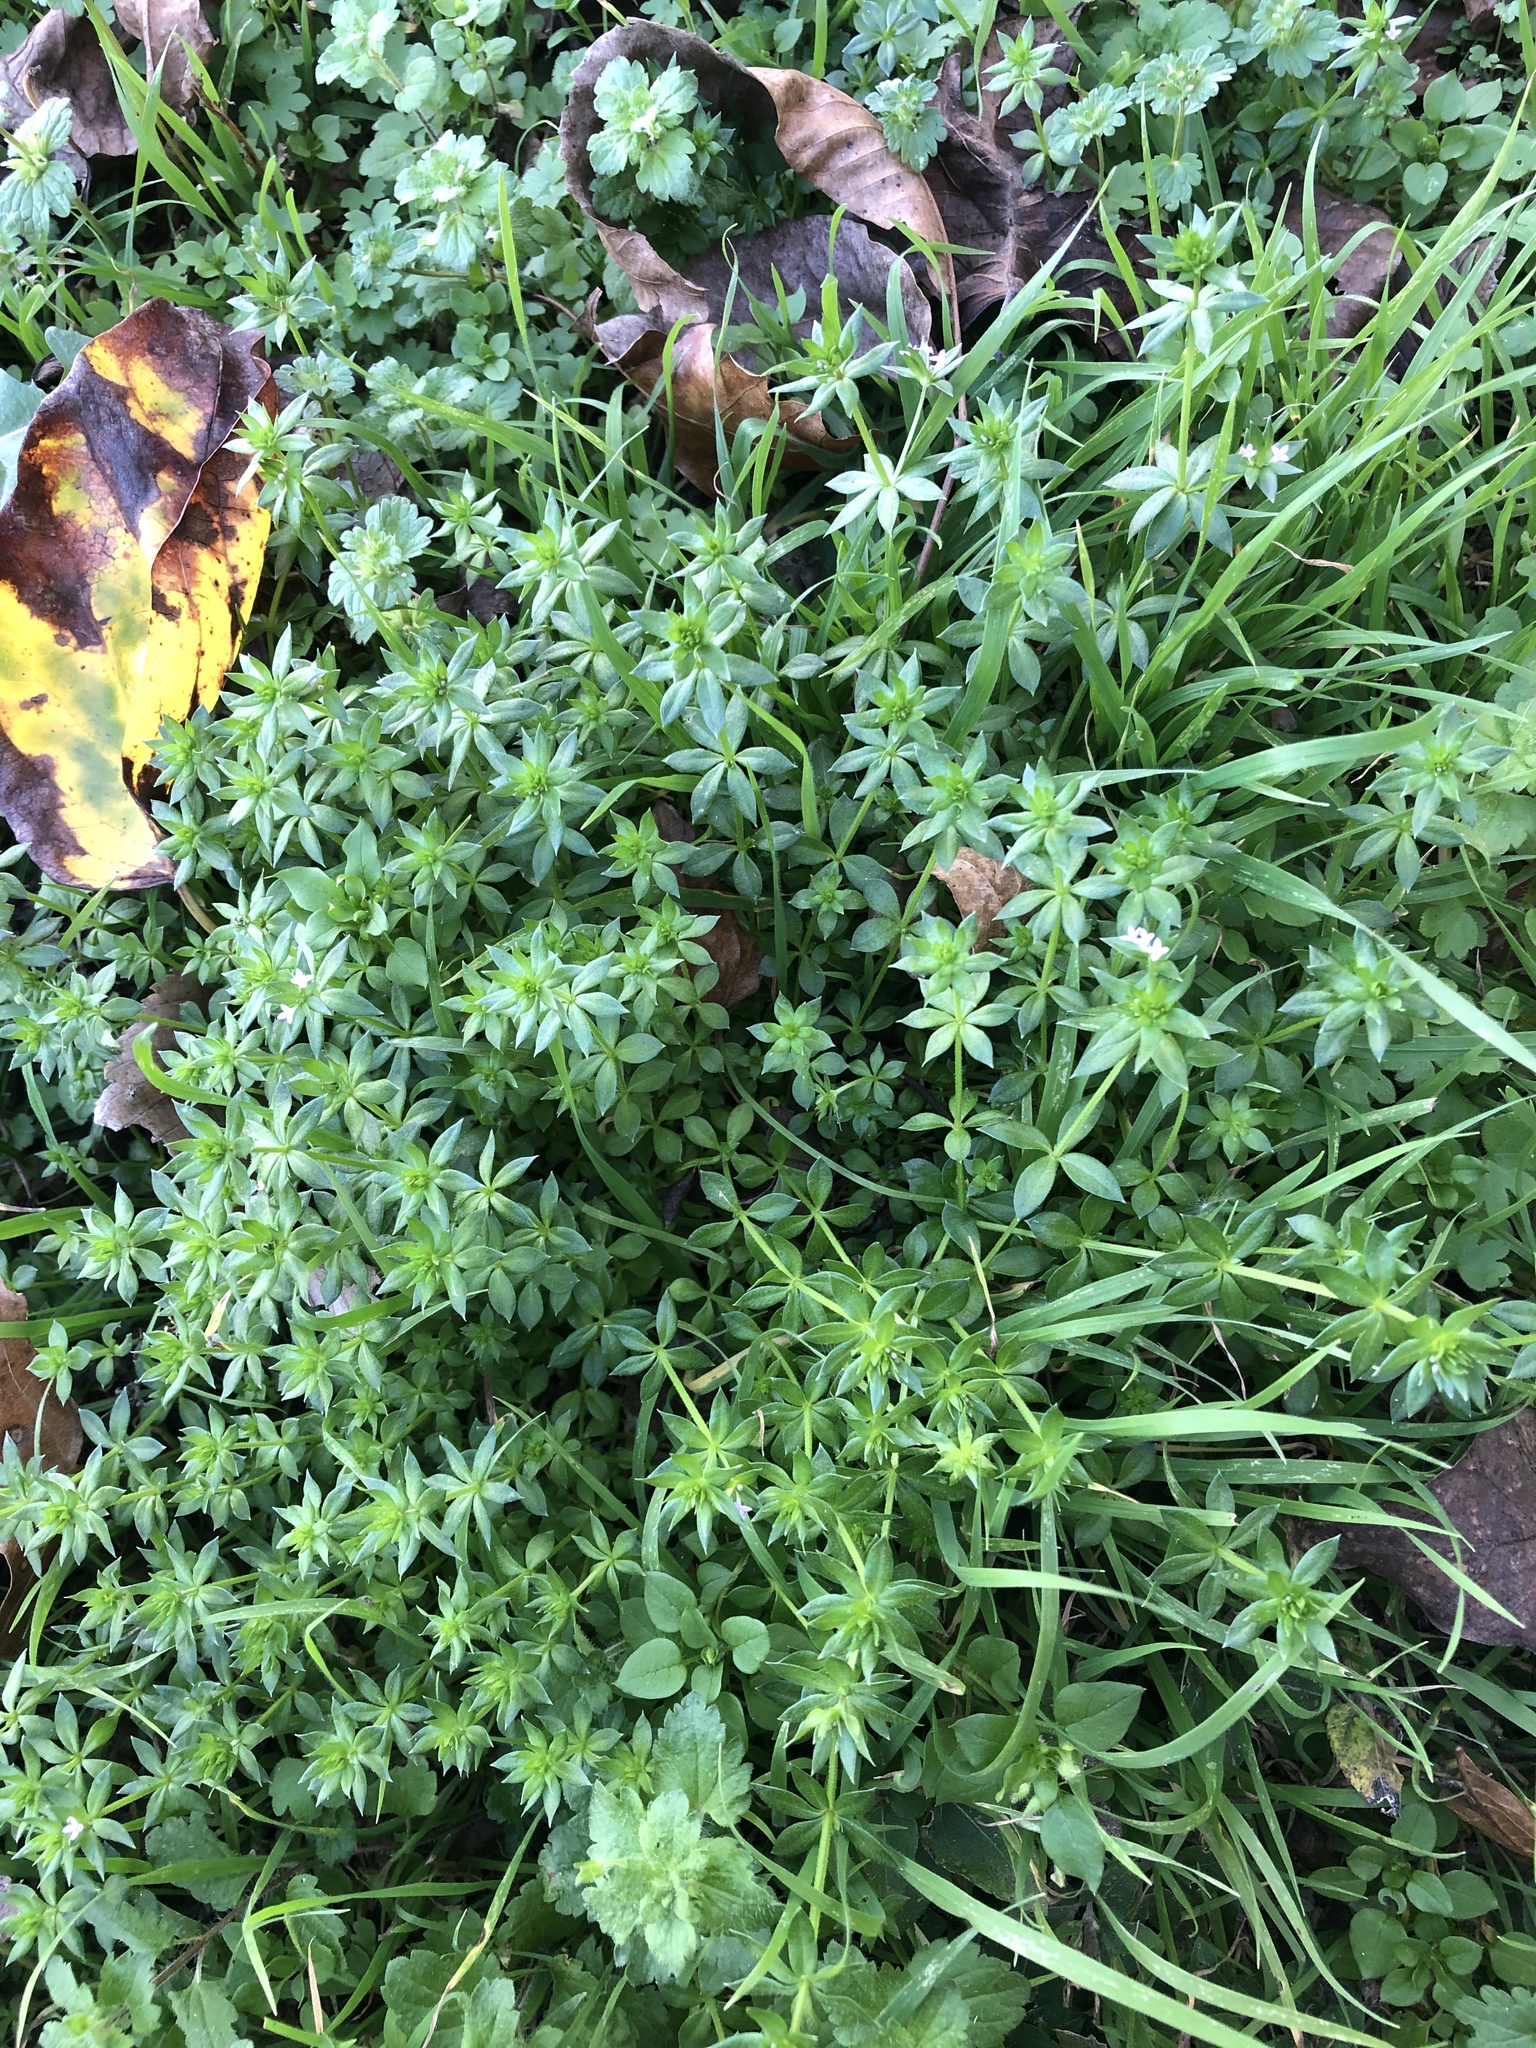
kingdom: Plantae
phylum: Tracheophyta
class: Magnoliopsida
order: Gentianales
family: Rubiaceae
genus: Sherardia
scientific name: Sherardia arvensis
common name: Field madder
